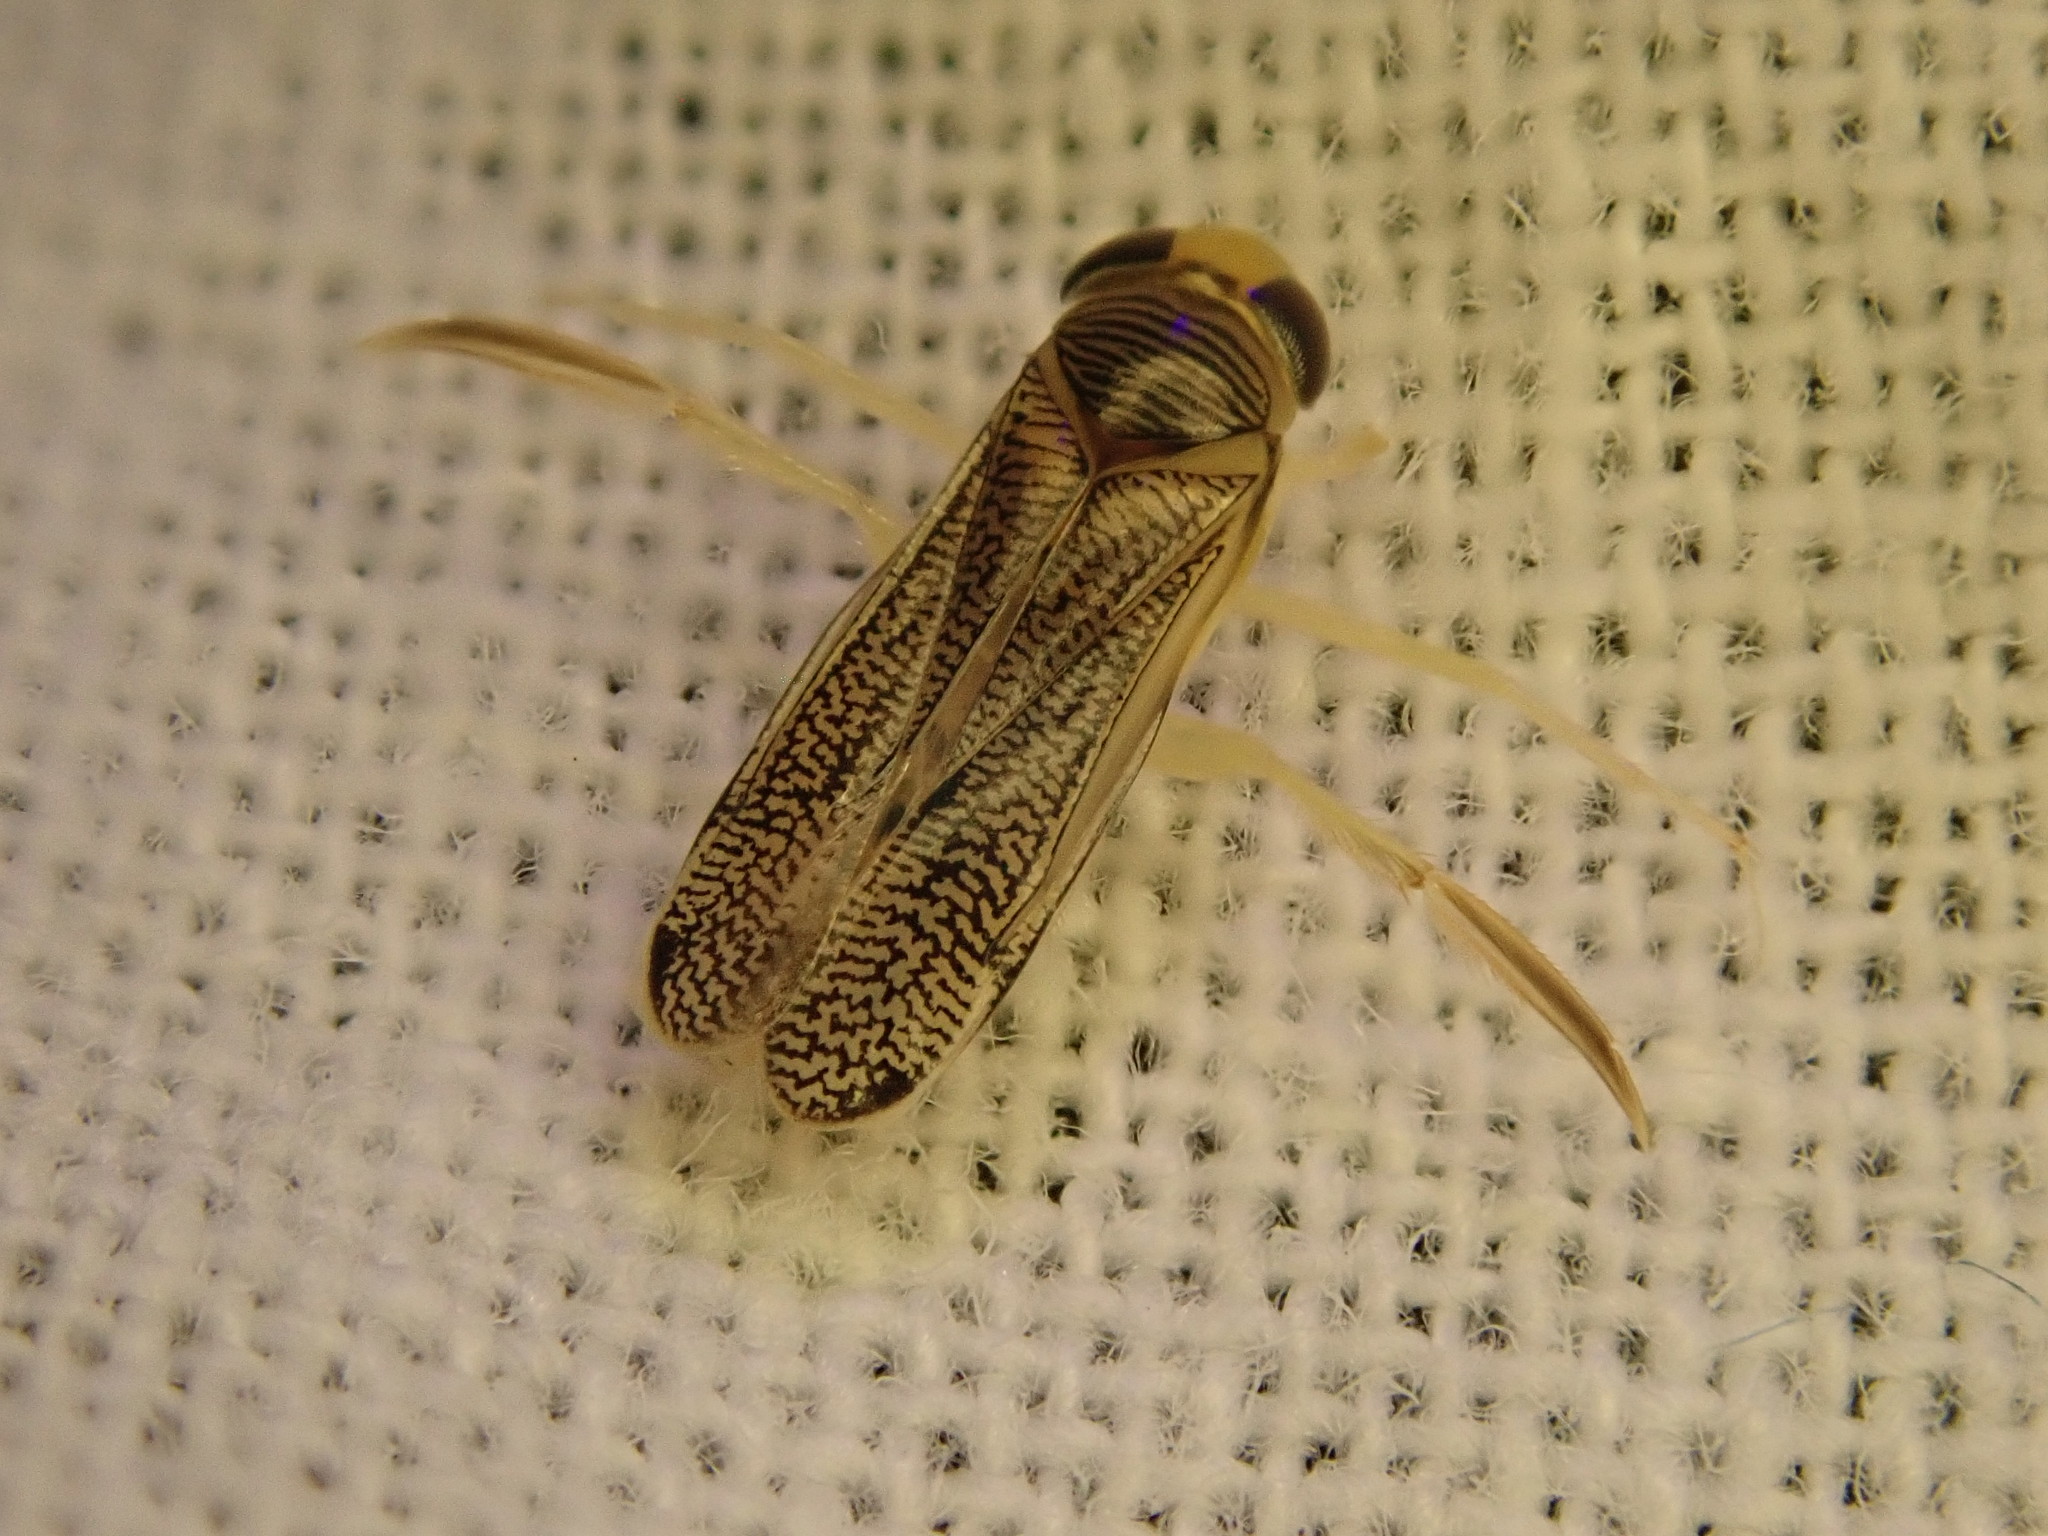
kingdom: Animalia
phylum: Arthropoda
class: Insecta
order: Hemiptera
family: Corixidae
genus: Trichocorixa
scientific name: Trichocorixa
